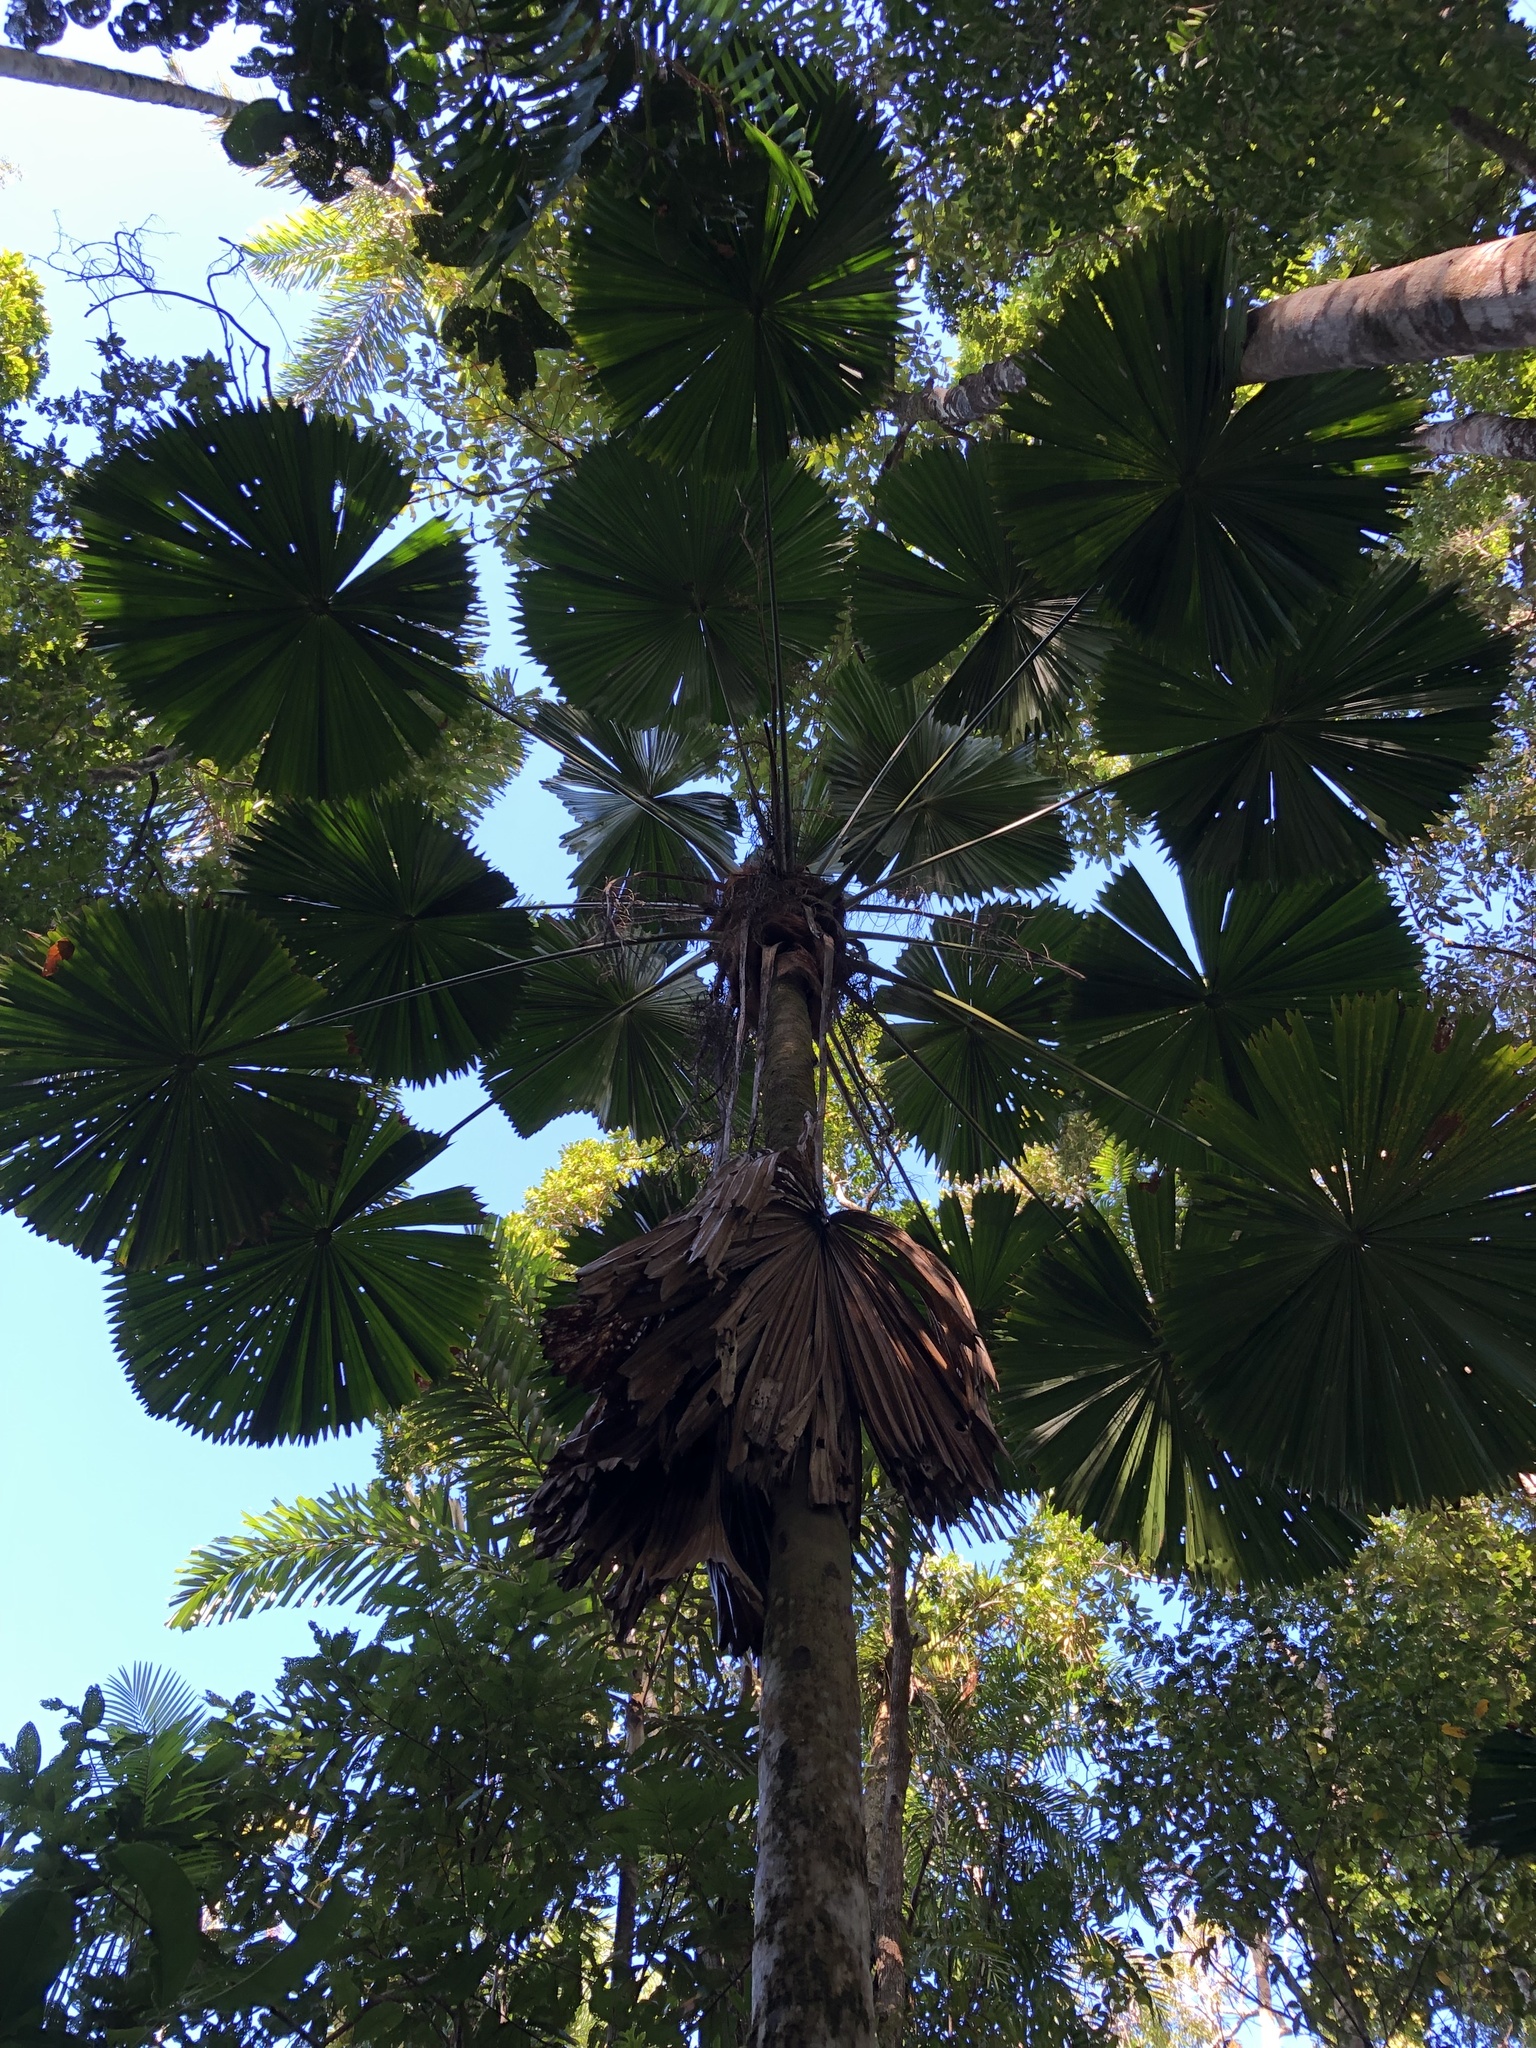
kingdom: Plantae
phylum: Tracheophyta
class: Liliopsida
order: Arecales
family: Arecaceae
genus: Licuala
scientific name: Licuala ramsayi
